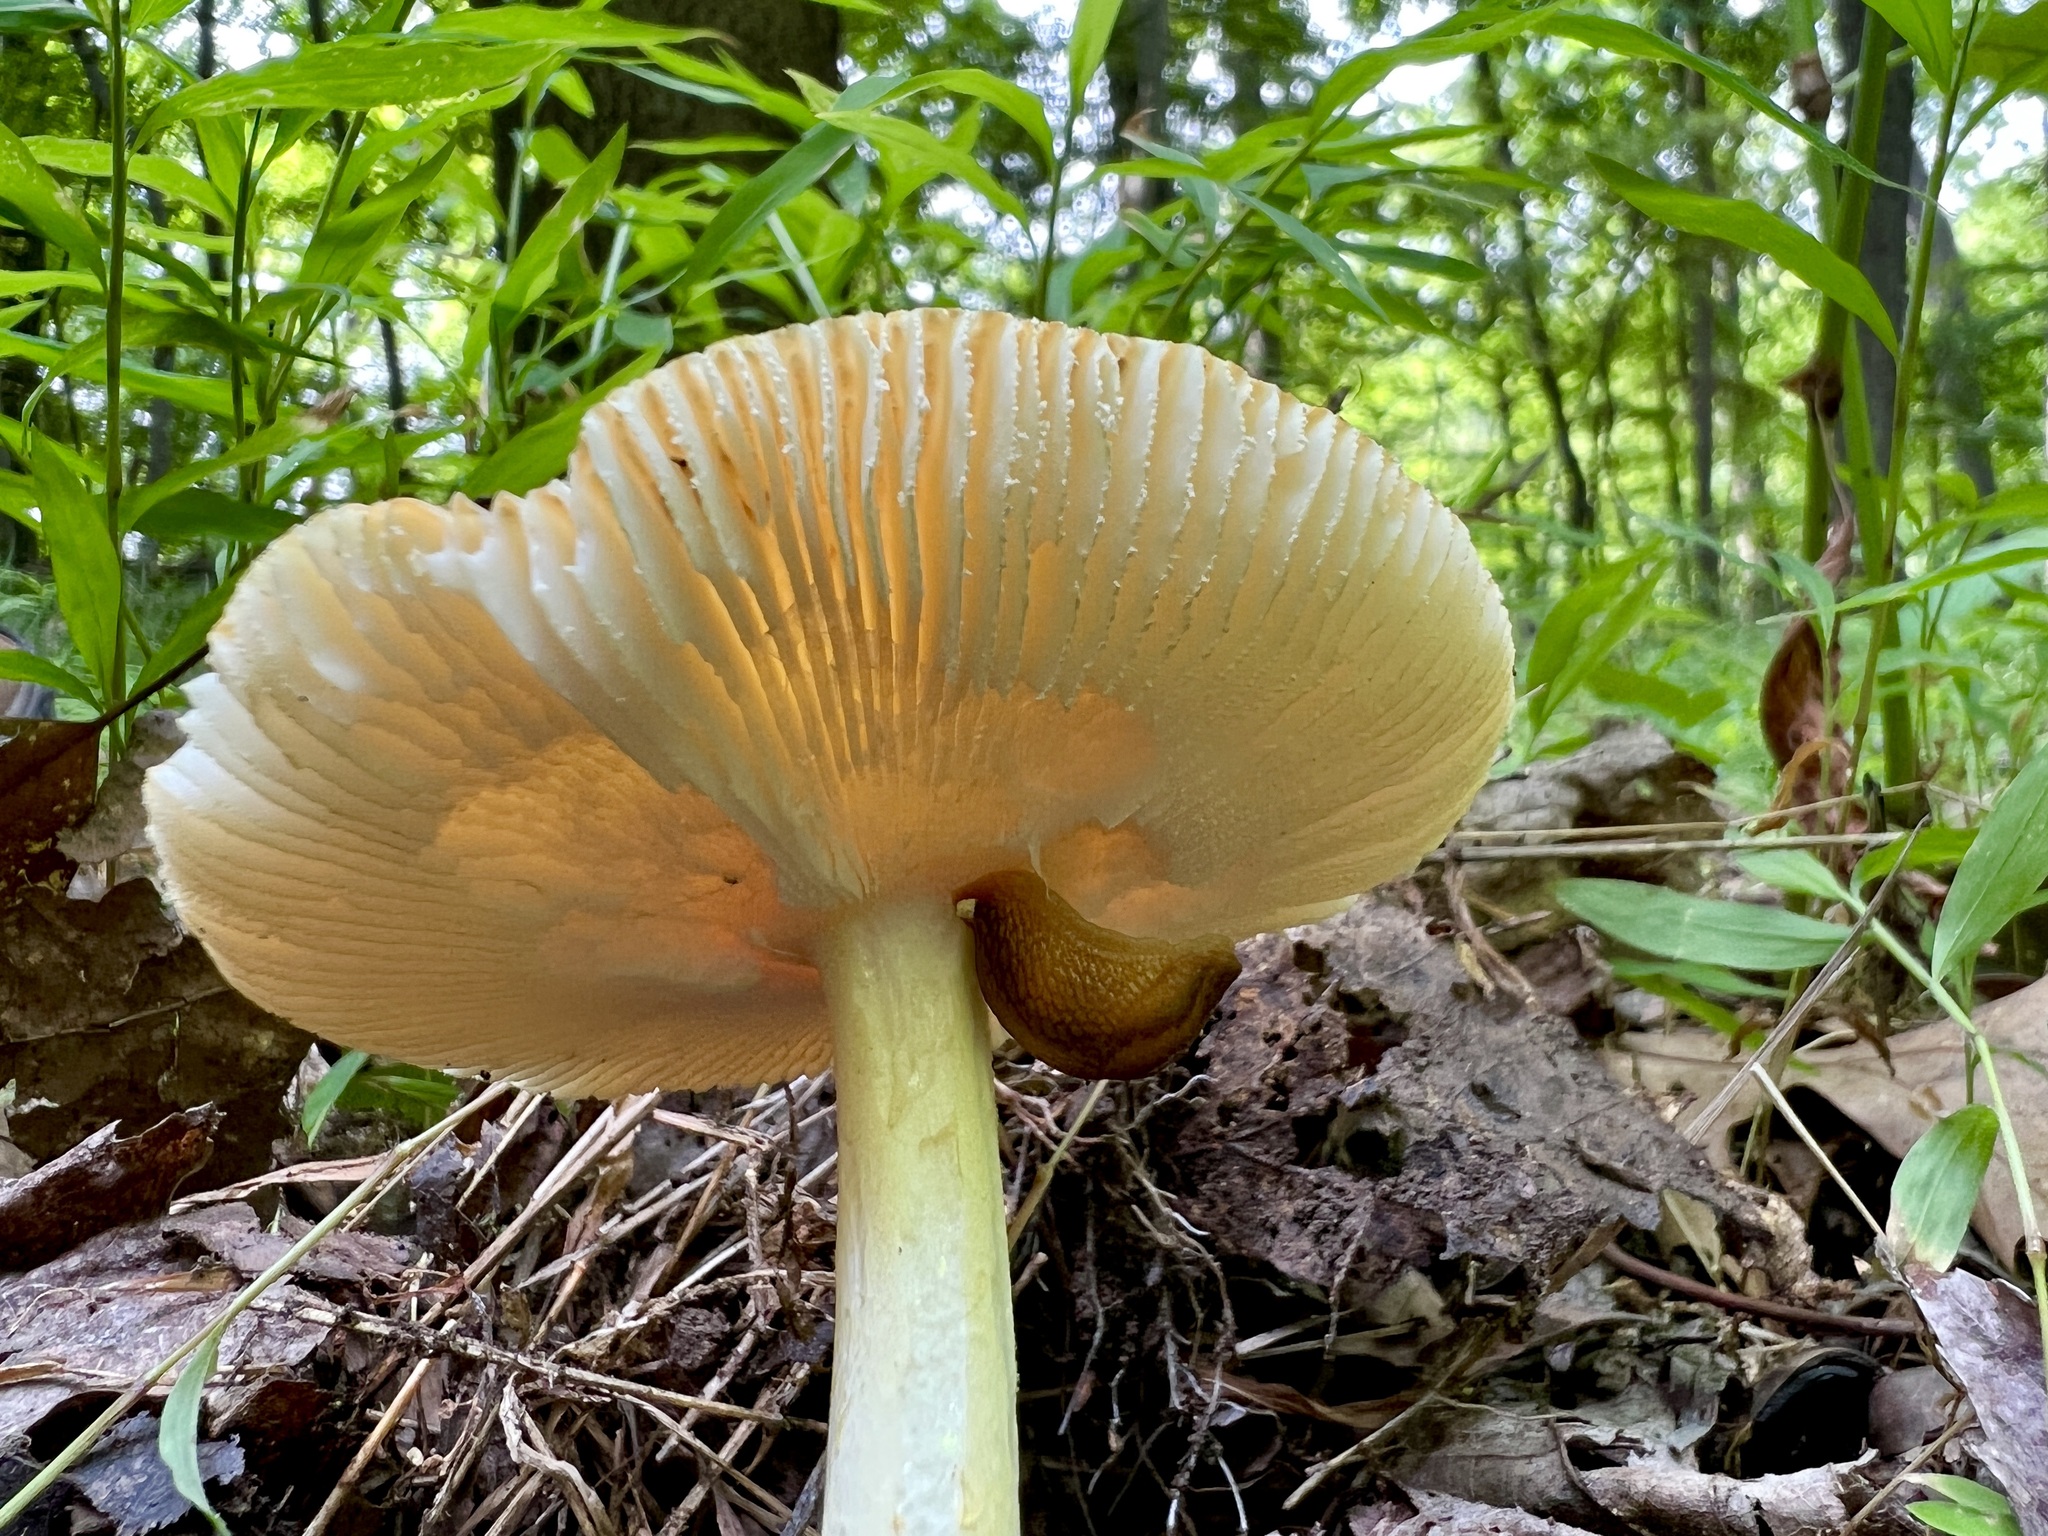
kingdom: Fungi
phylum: Basidiomycota
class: Agaricomycetes
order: Agaricales
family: Amanitaceae
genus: Amanita
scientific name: Amanita parcivolvata
